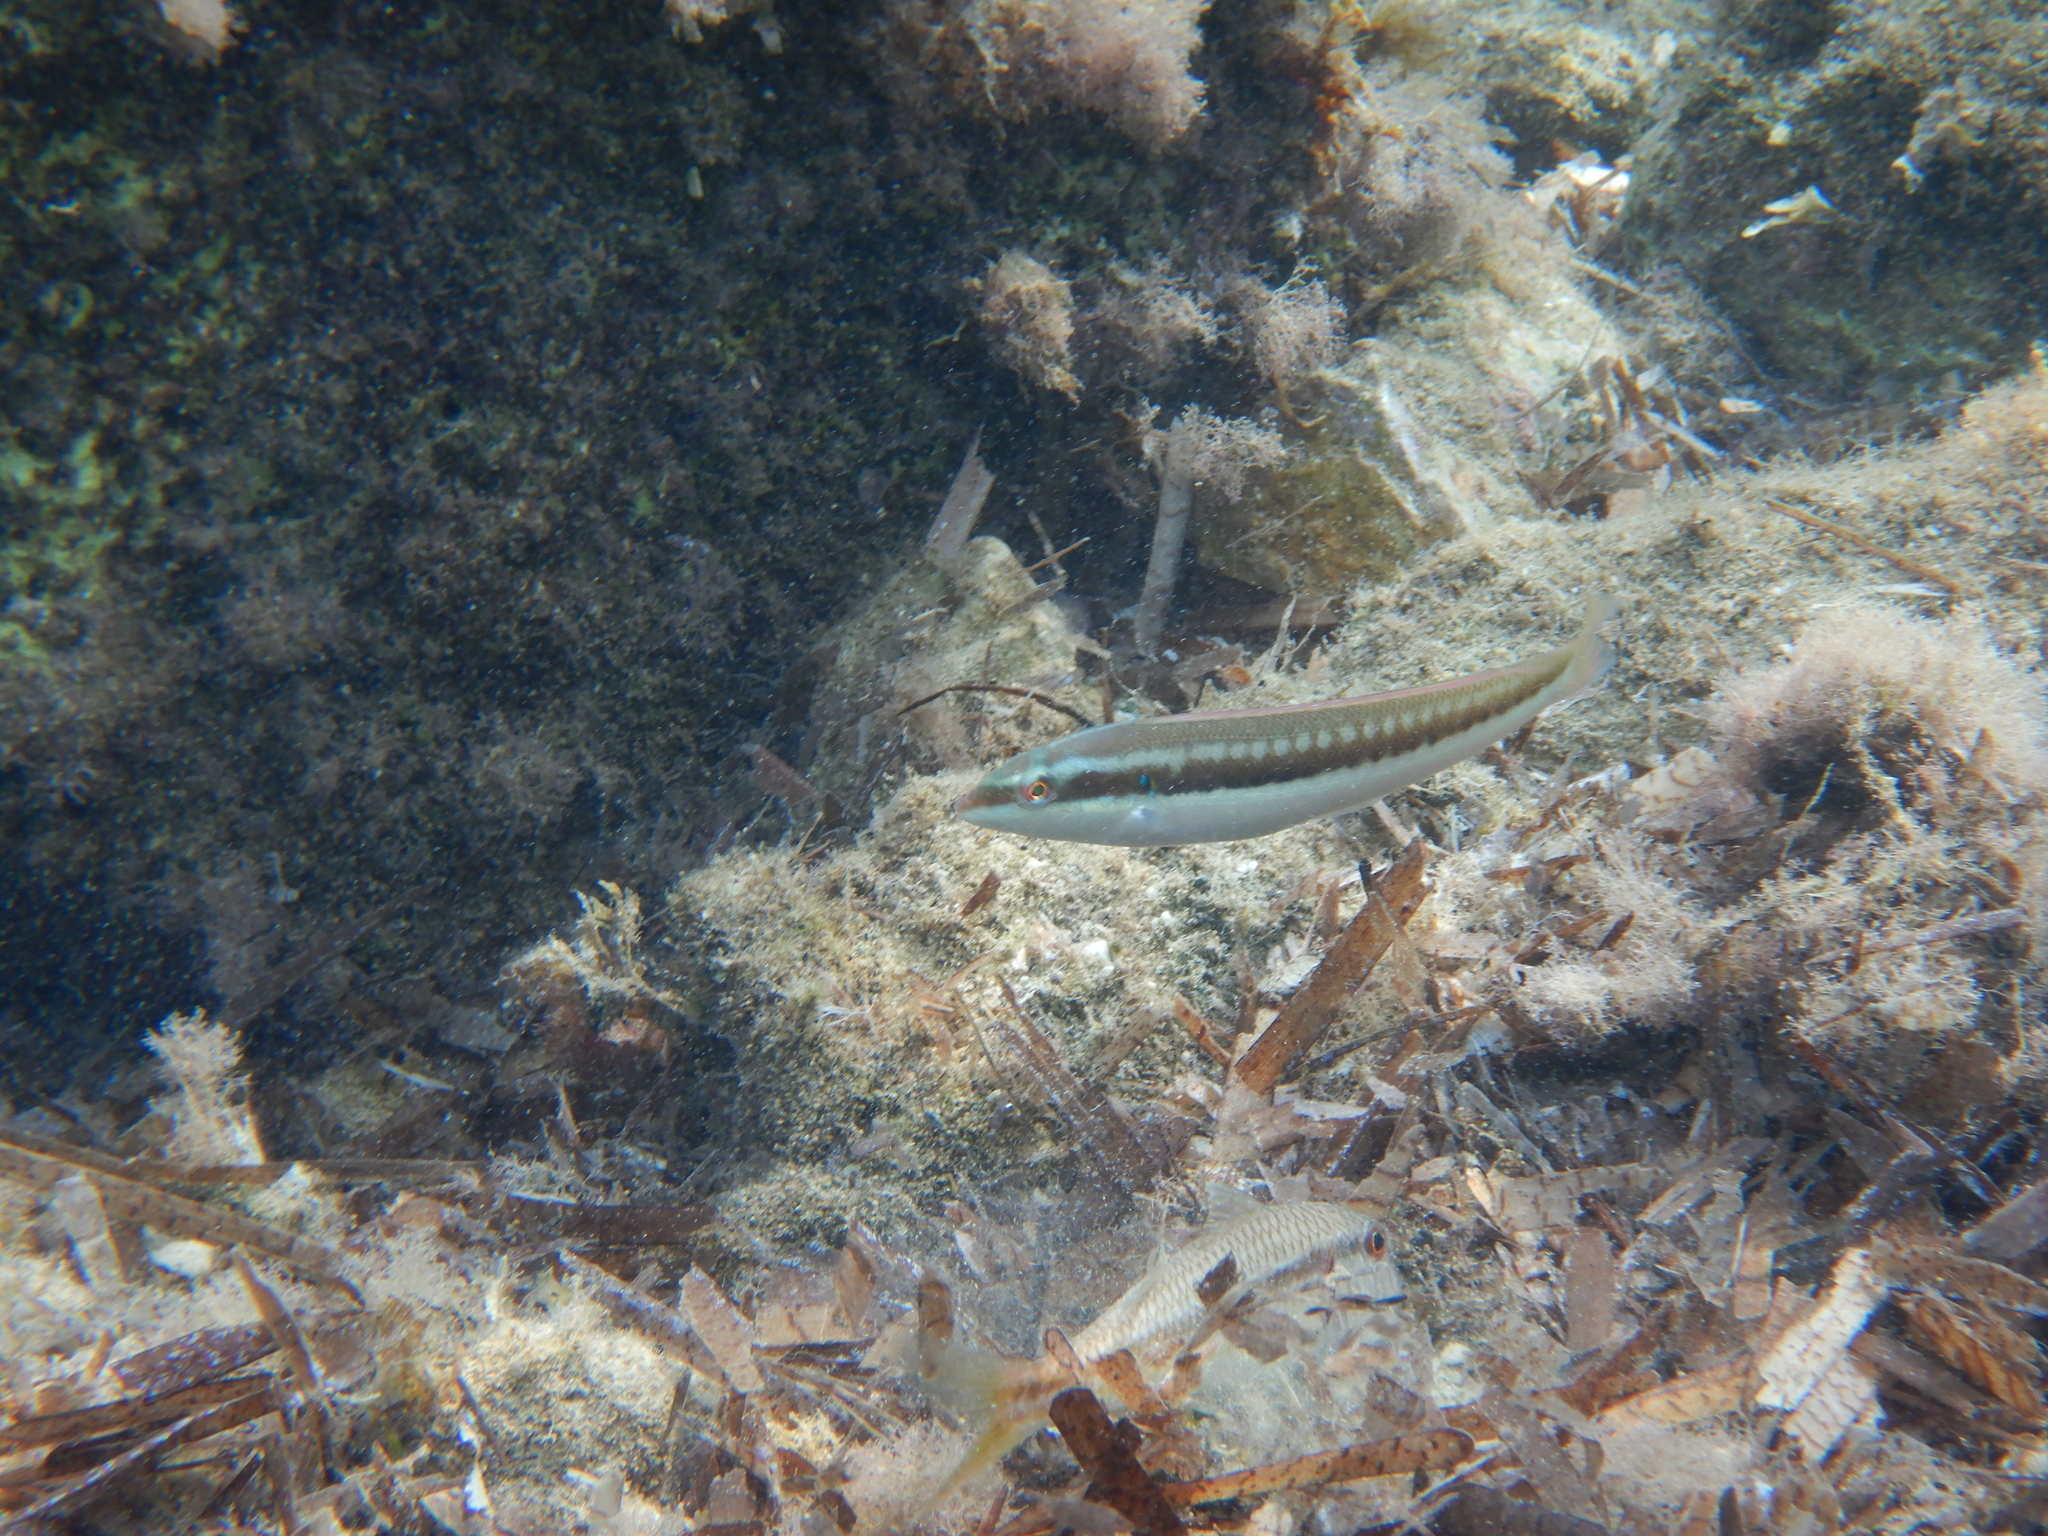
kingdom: Animalia
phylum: Chordata
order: Perciformes
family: Labridae
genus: Coris
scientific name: Coris julis
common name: Rainbow wrasse
